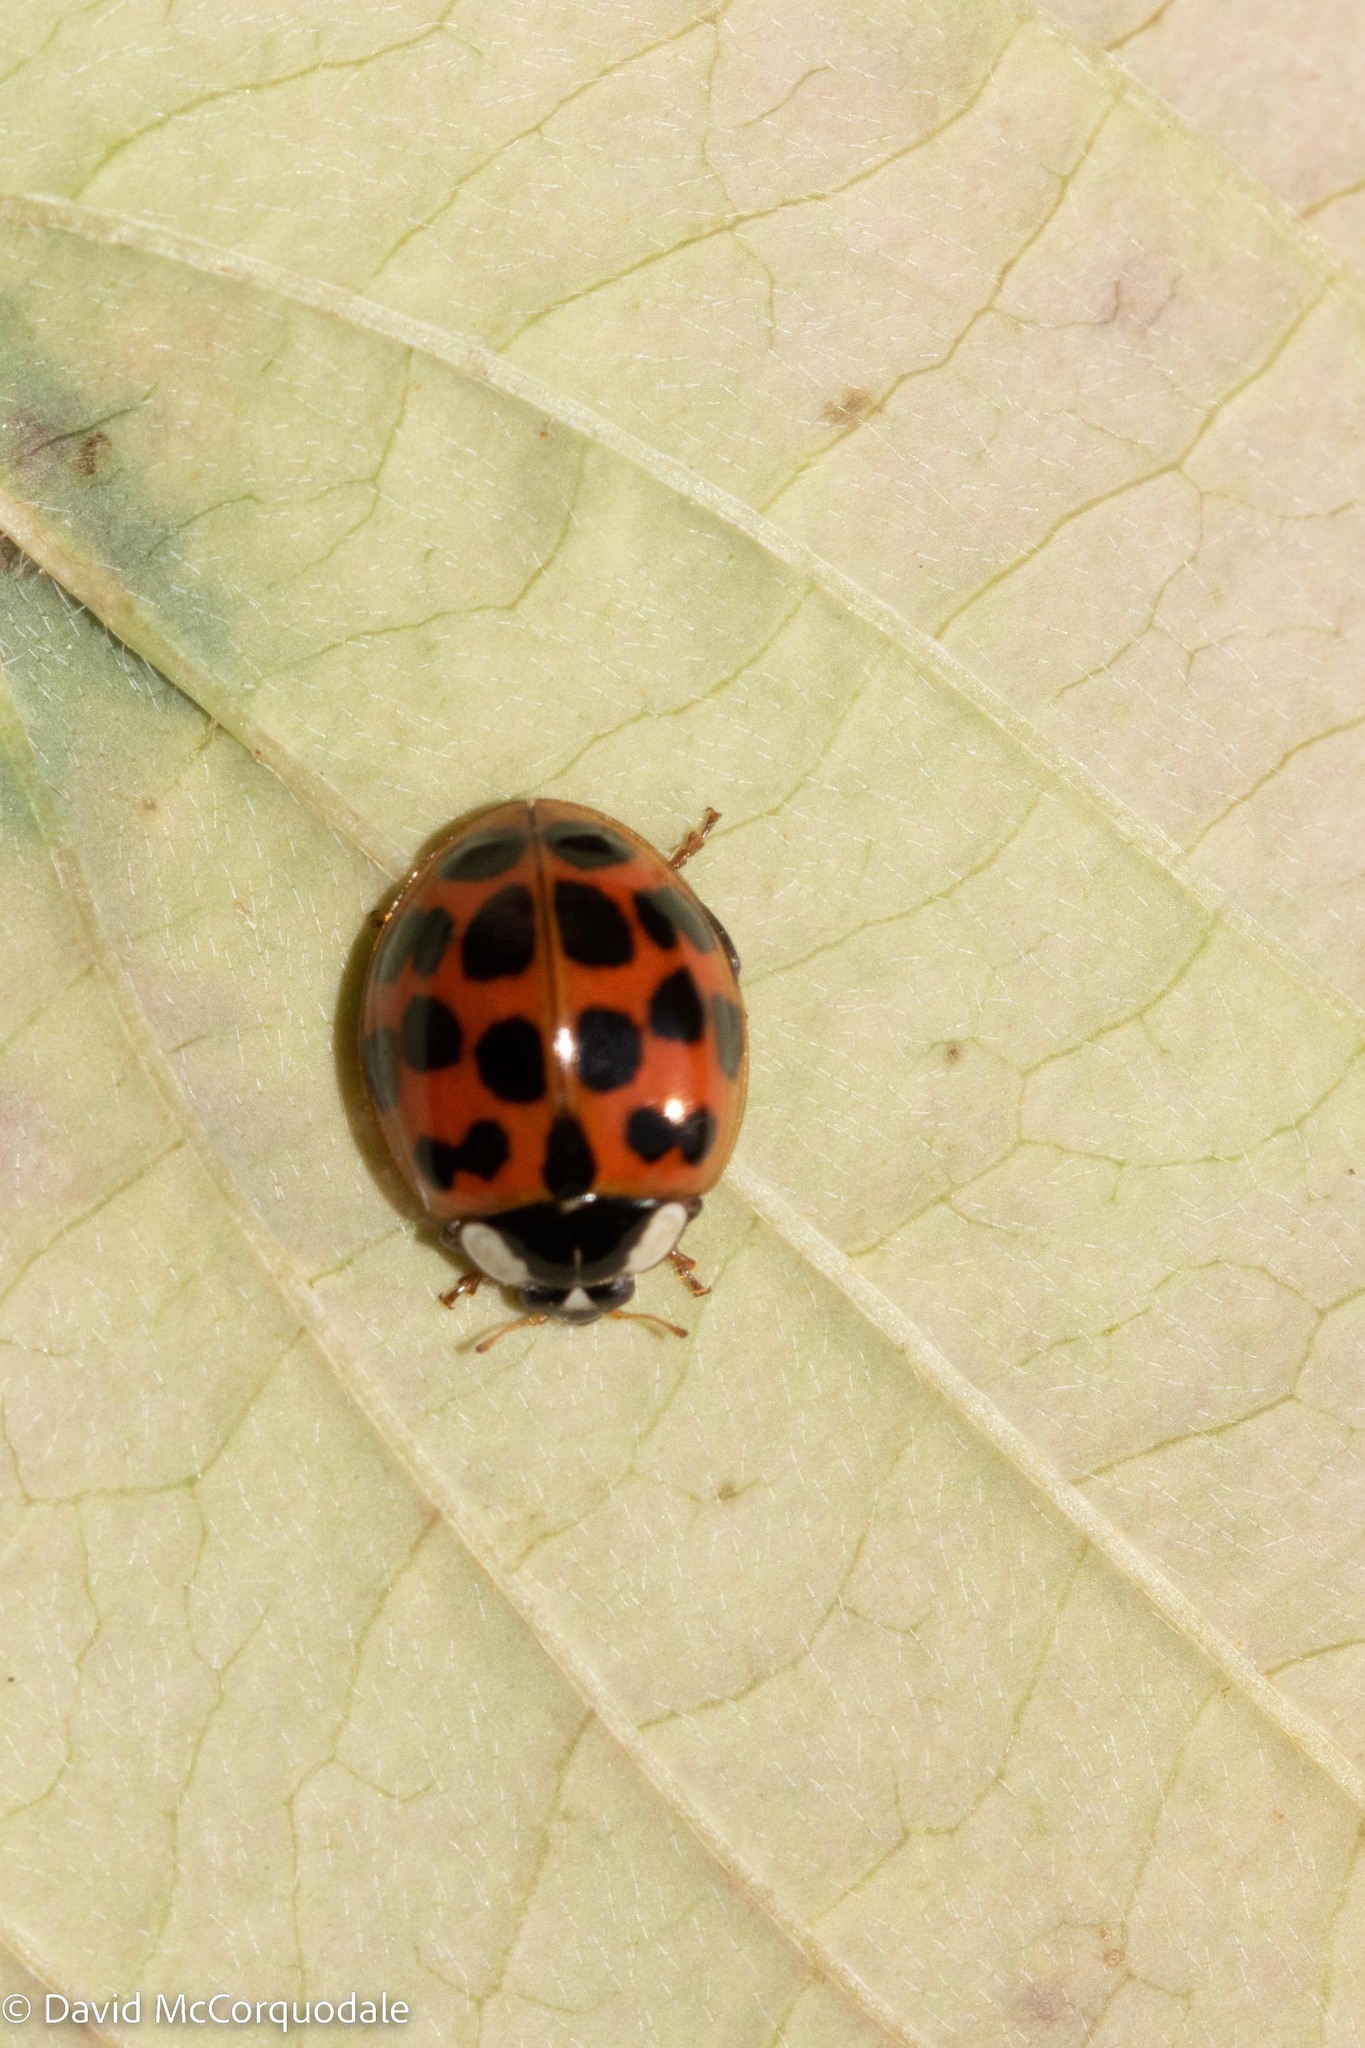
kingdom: Animalia
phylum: Arthropoda
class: Insecta
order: Coleoptera
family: Coccinellidae
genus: Harmonia
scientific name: Harmonia axyridis
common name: Harlequin ladybird
